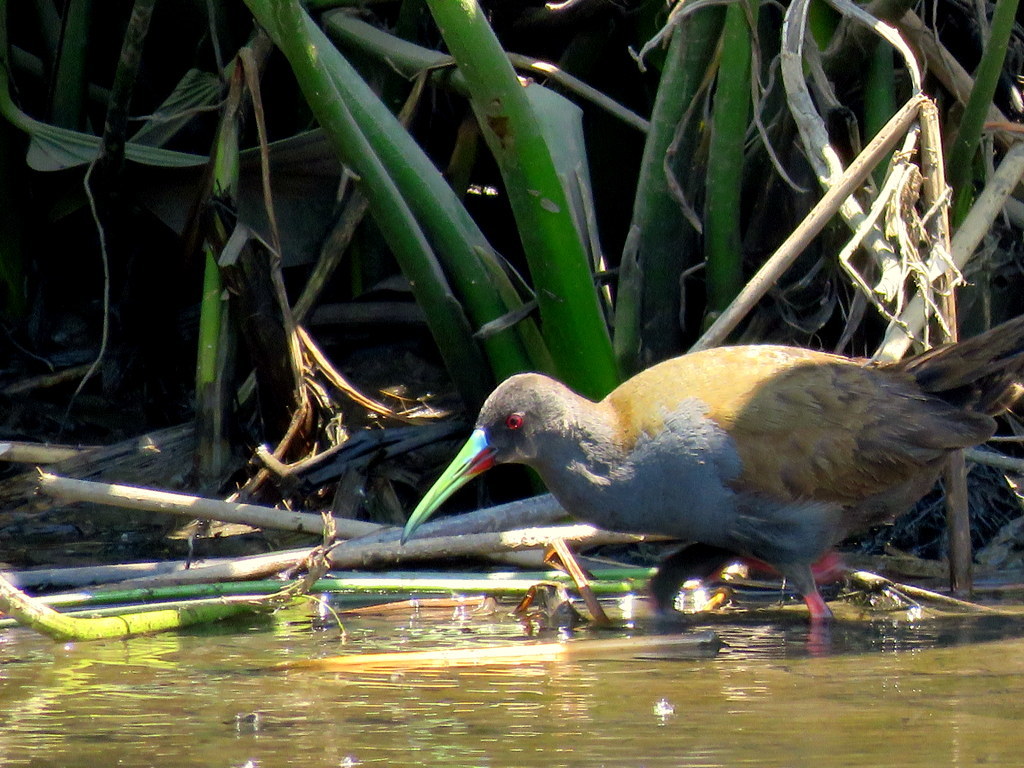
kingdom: Animalia
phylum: Chordata
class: Aves
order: Gruiformes
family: Rallidae
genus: Pardirallus
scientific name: Pardirallus sanguinolentus
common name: Plumbeous rail
